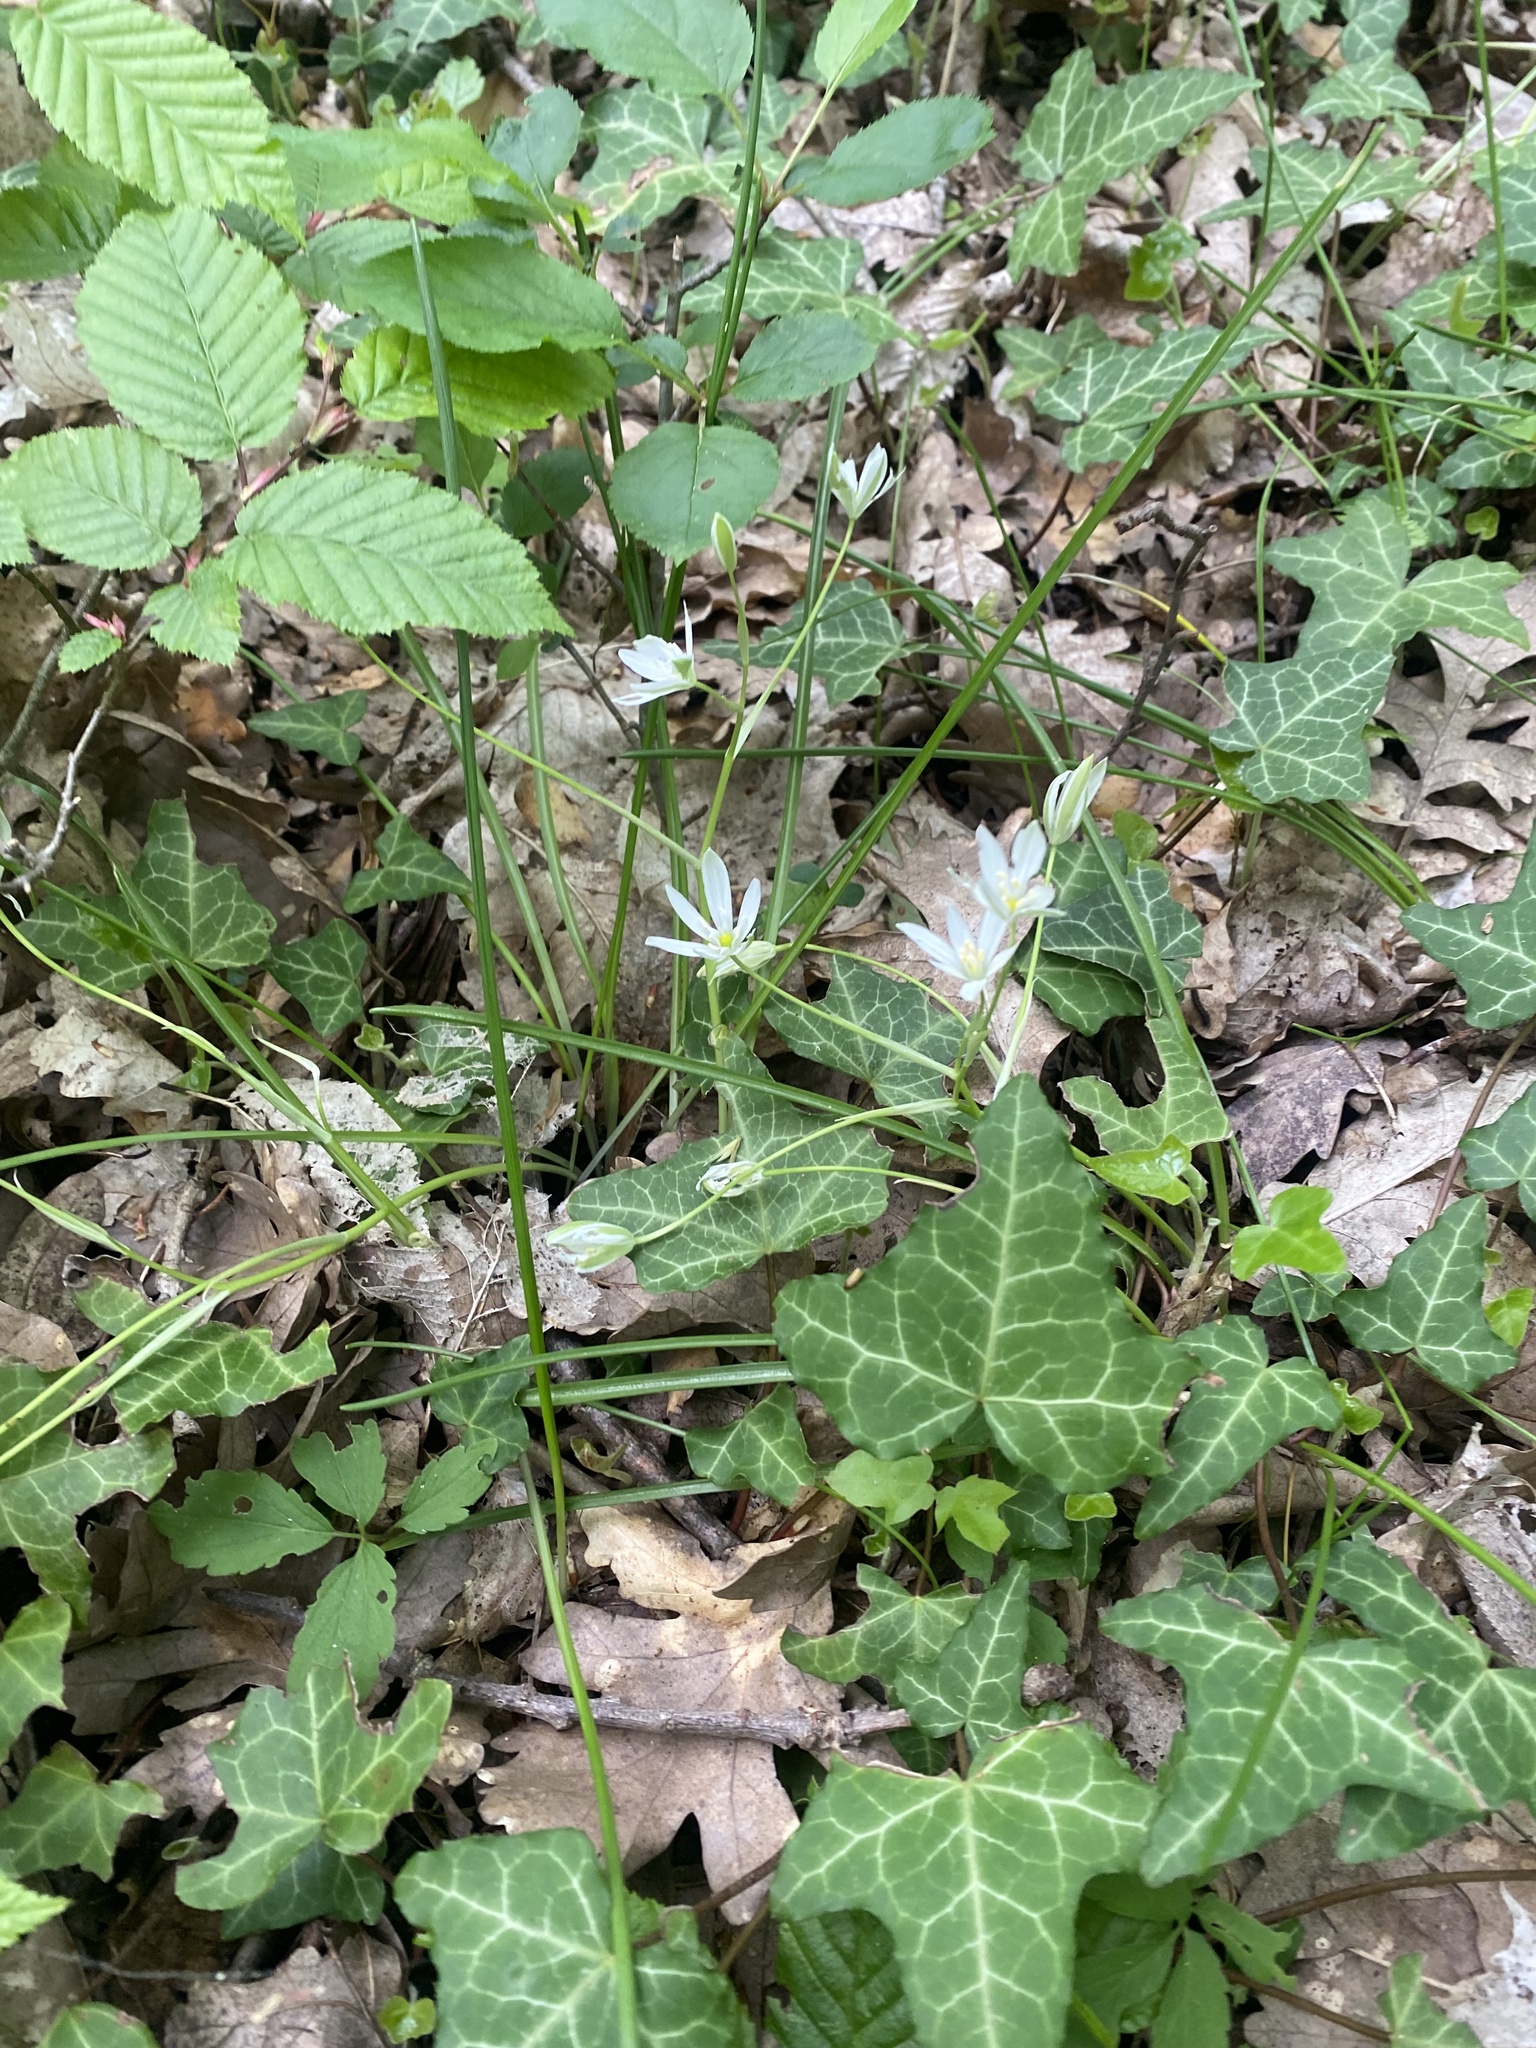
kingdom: Plantae
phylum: Tracheophyta
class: Liliopsida
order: Asparagales
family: Asparagaceae
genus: Ornithogalum
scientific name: Ornithogalum woronowii
